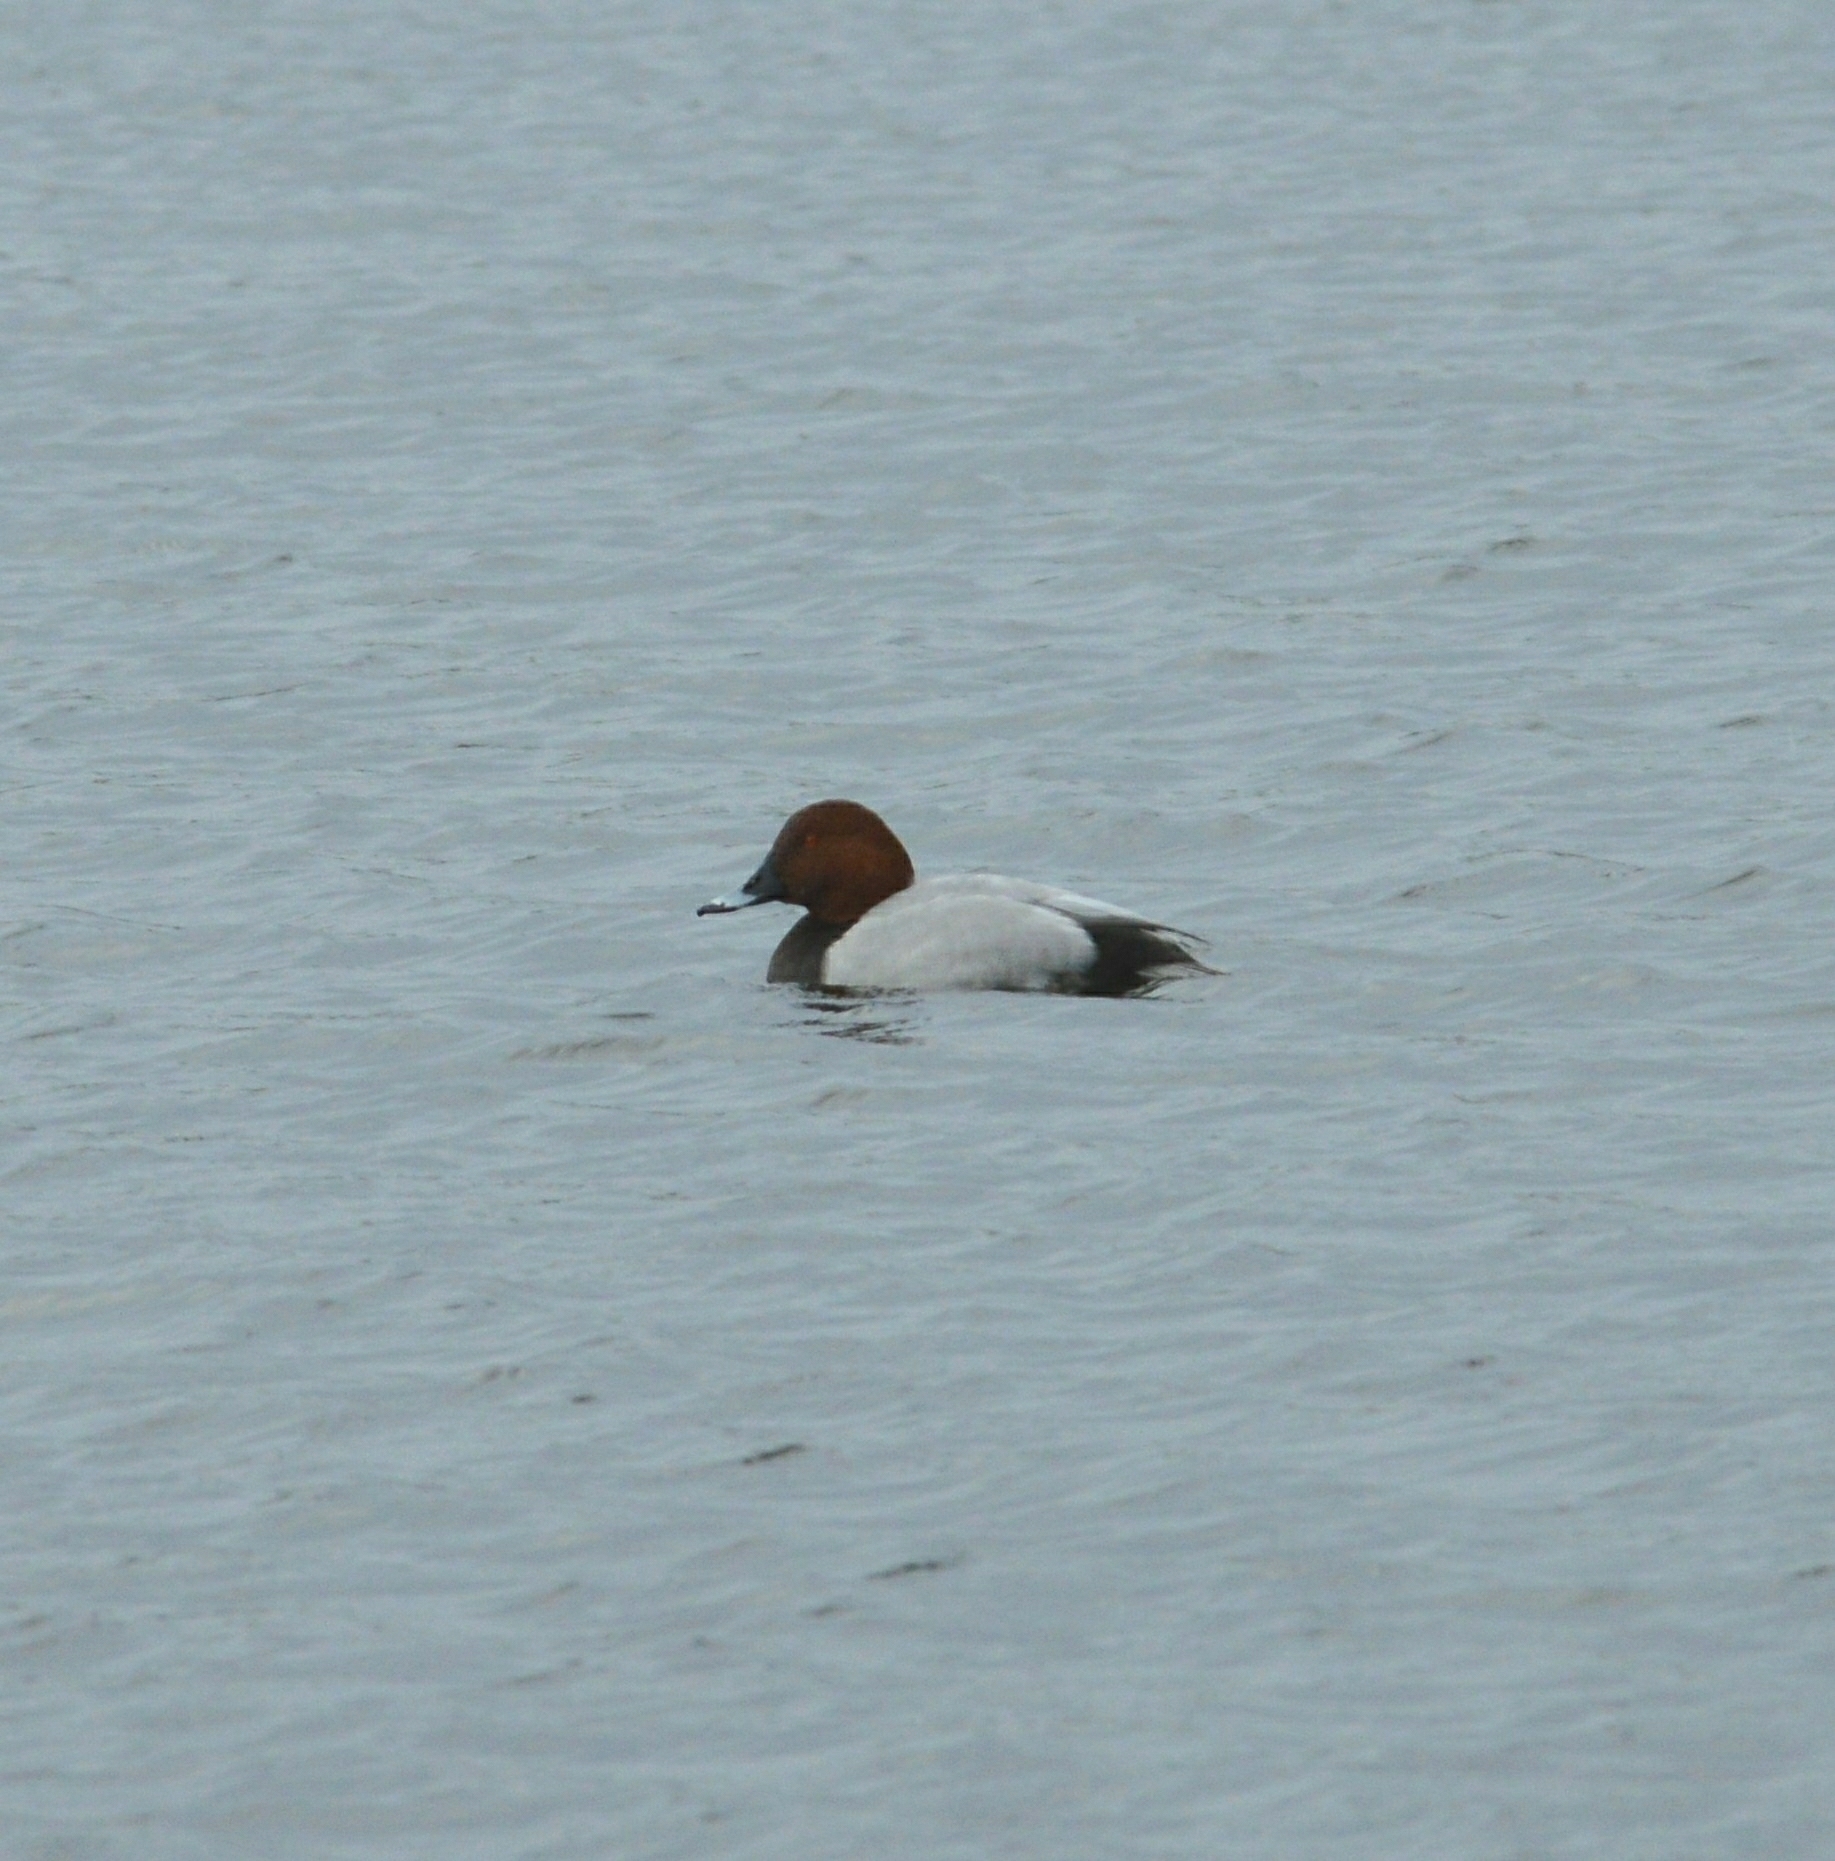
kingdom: Animalia
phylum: Chordata
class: Aves
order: Anseriformes
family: Anatidae
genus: Aythya
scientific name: Aythya ferina
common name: Common pochard
